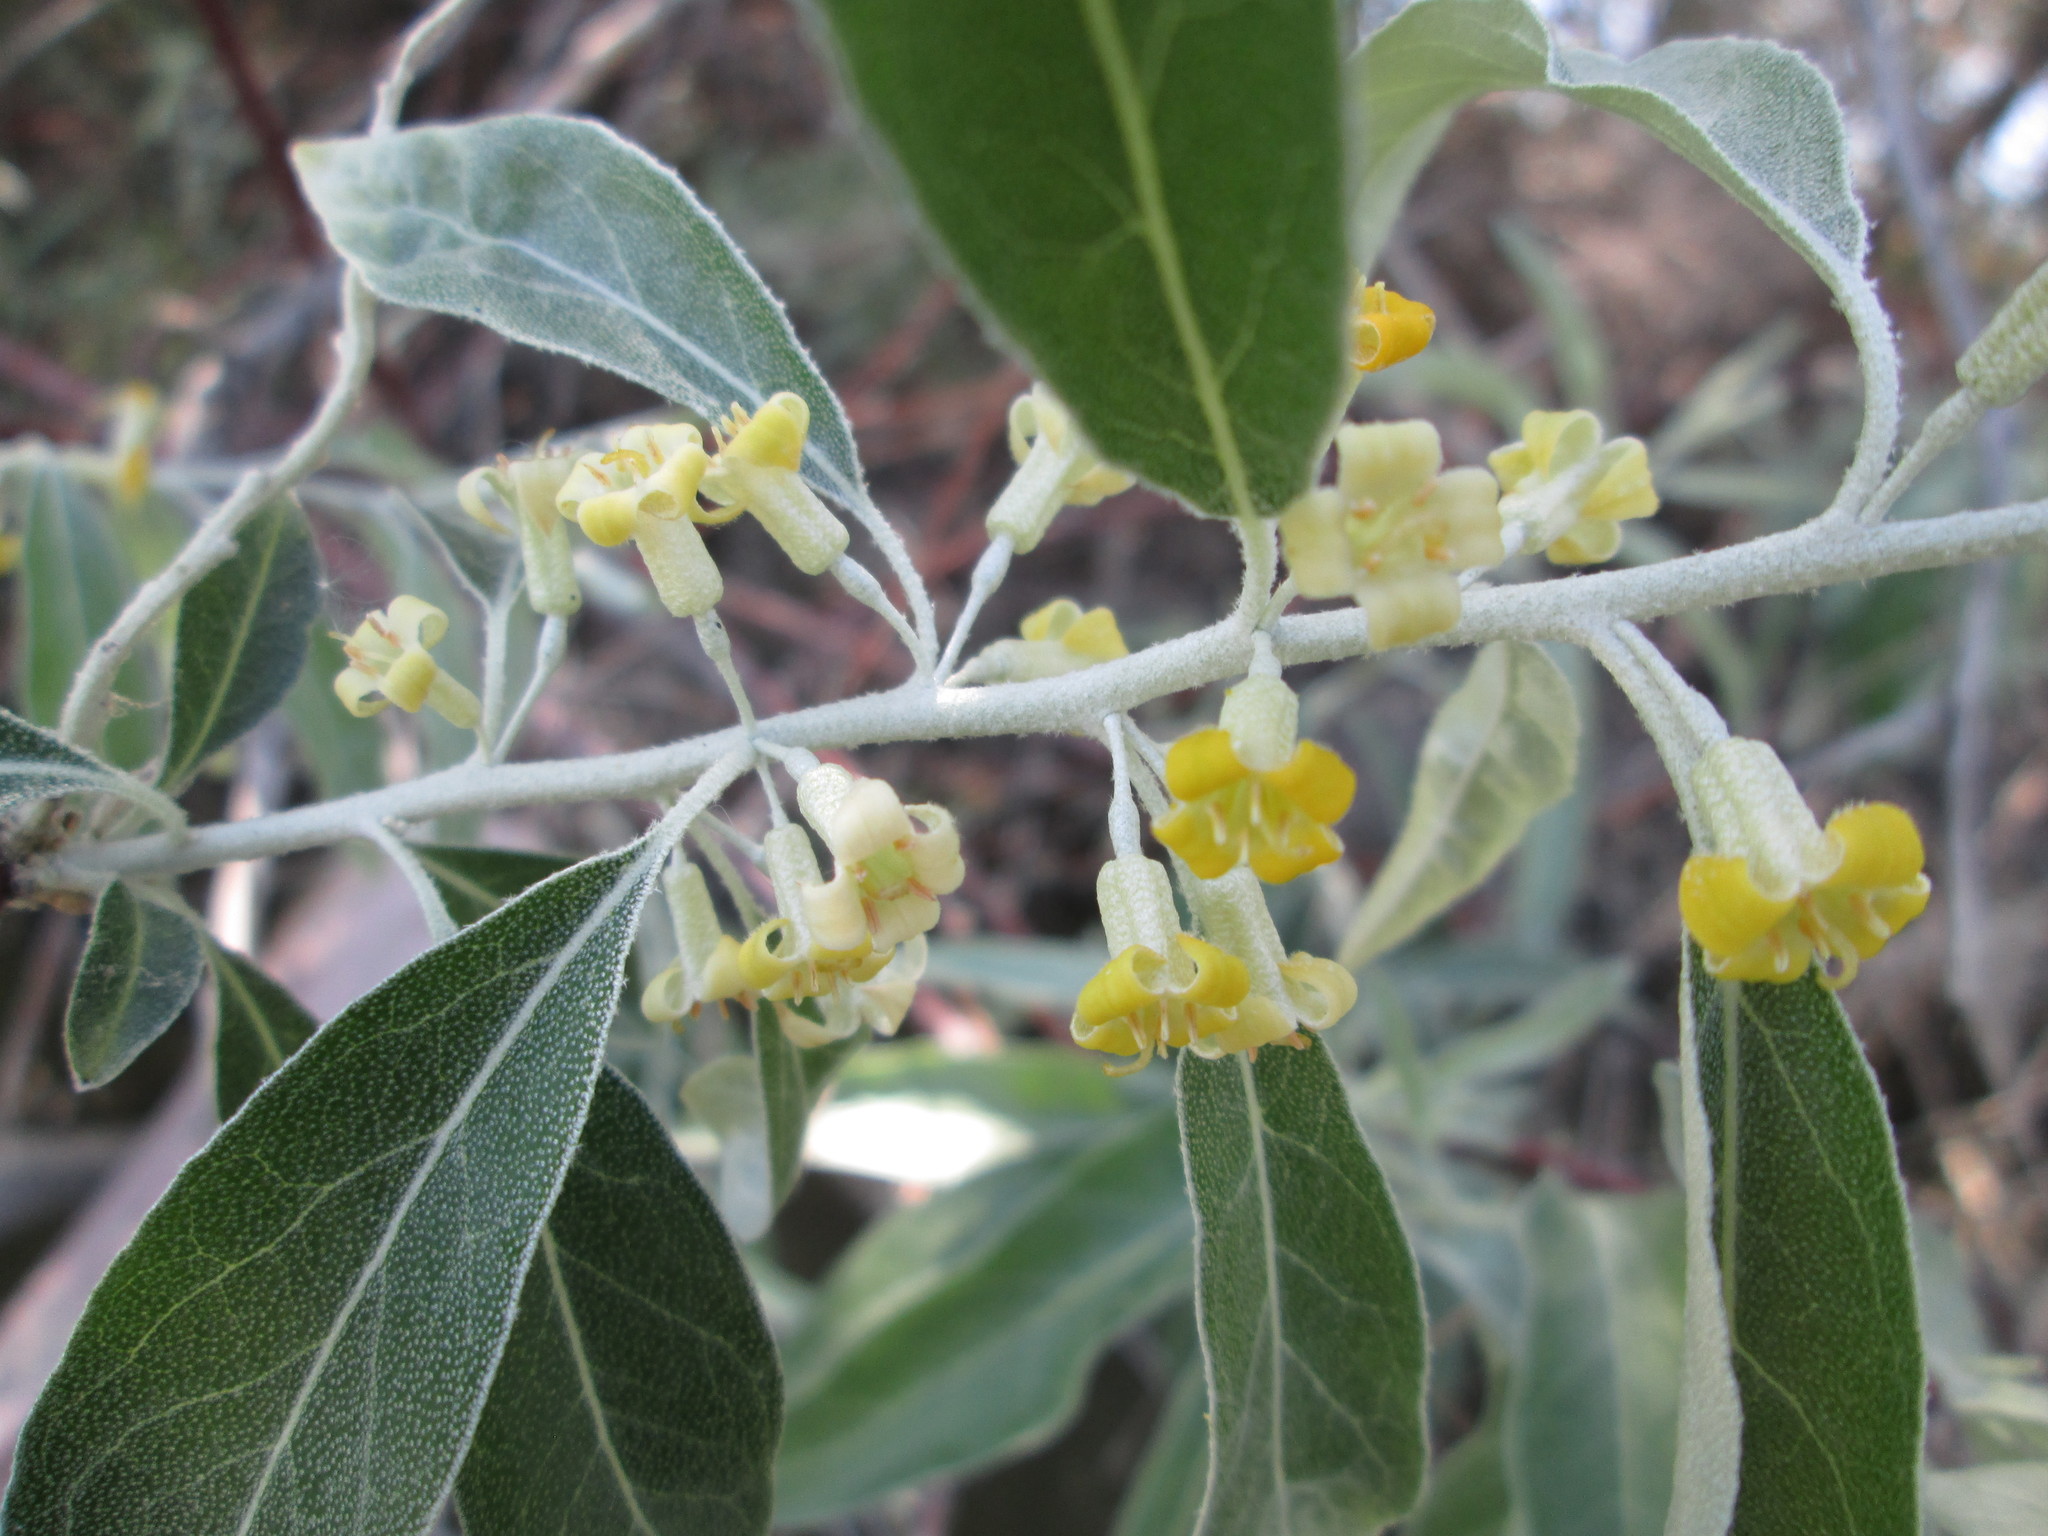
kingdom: Plantae
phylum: Tracheophyta
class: Magnoliopsida
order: Rosales
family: Elaeagnaceae
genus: Elaeagnus
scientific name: Elaeagnus angustifolia
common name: Russian olive
